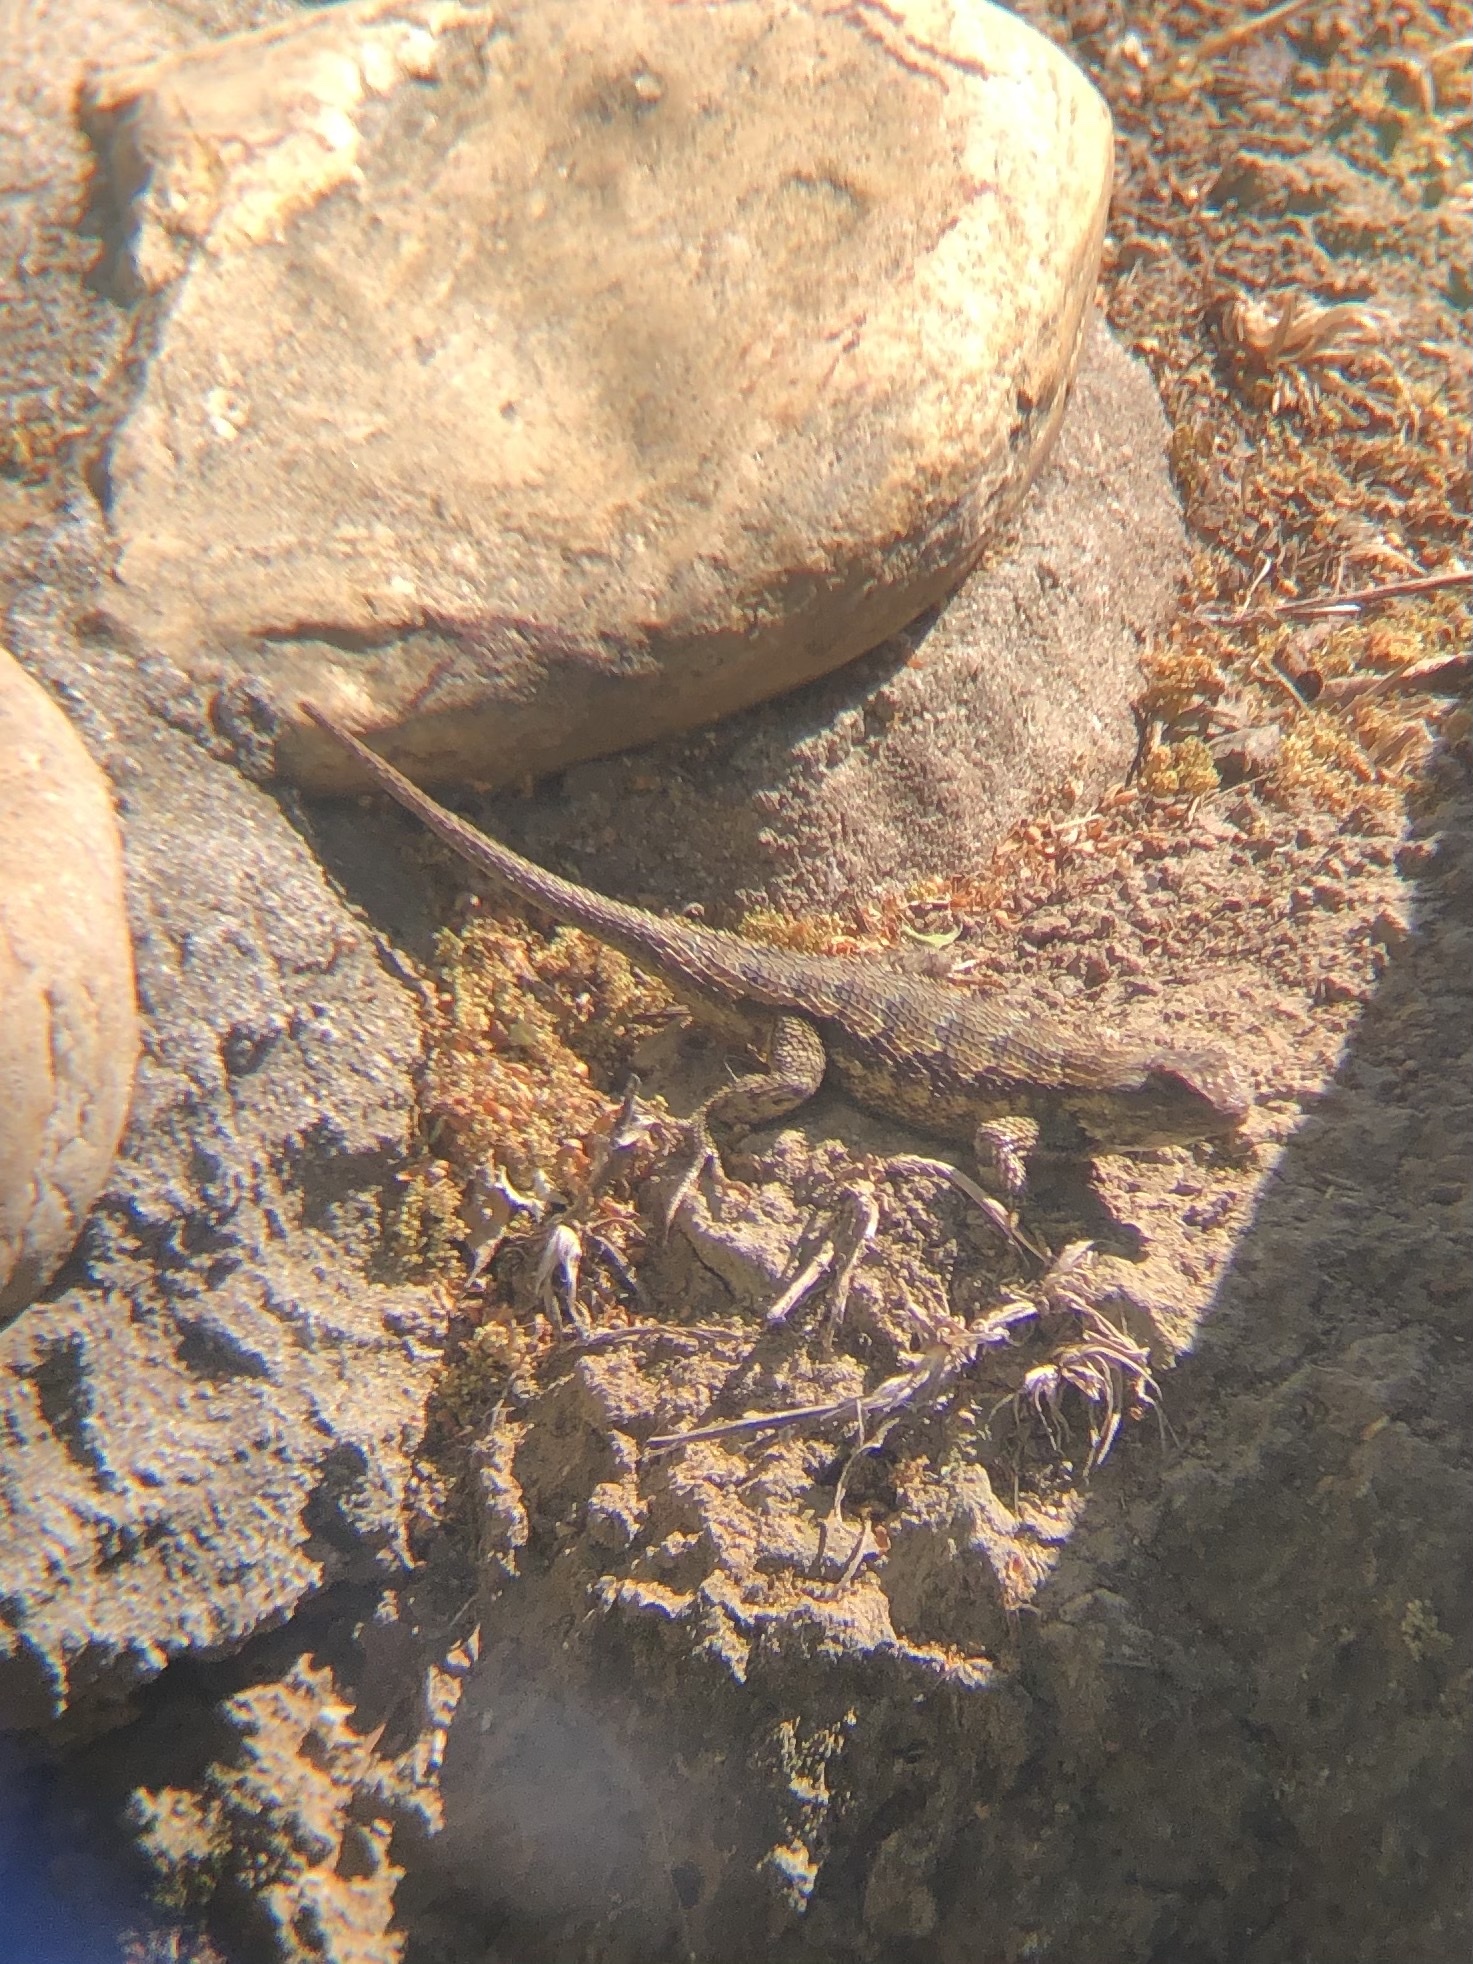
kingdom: Animalia
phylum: Chordata
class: Squamata
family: Phrynosomatidae
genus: Sceloporus
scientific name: Sceloporus occidentalis
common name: Western fence lizard
